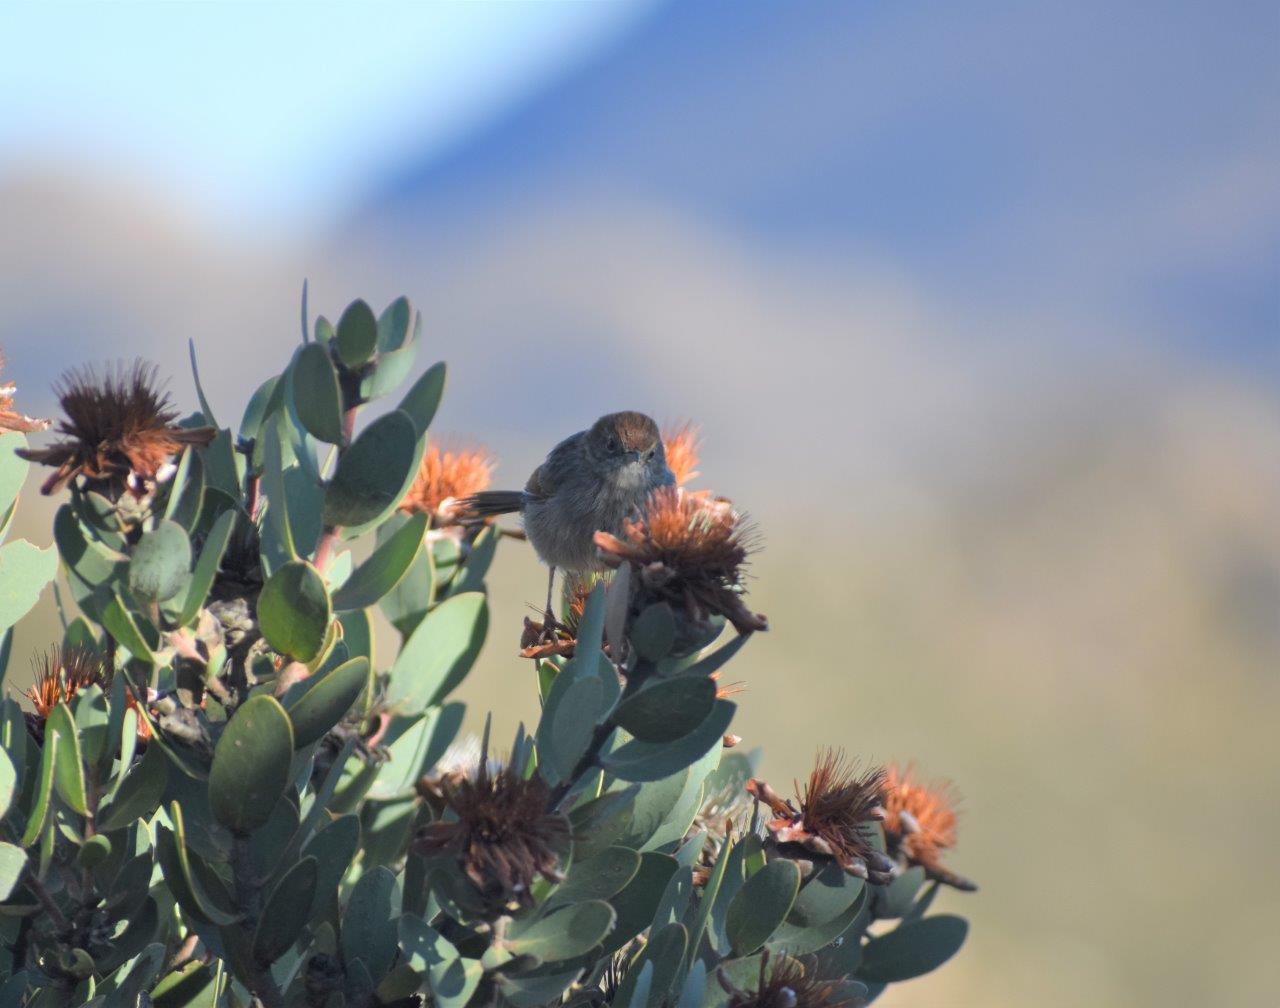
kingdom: Animalia
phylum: Chordata
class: Aves
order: Passeriformes
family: Cisticolidae
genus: Cisticola
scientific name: Cisticola fulvicapilla
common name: Neddicky
